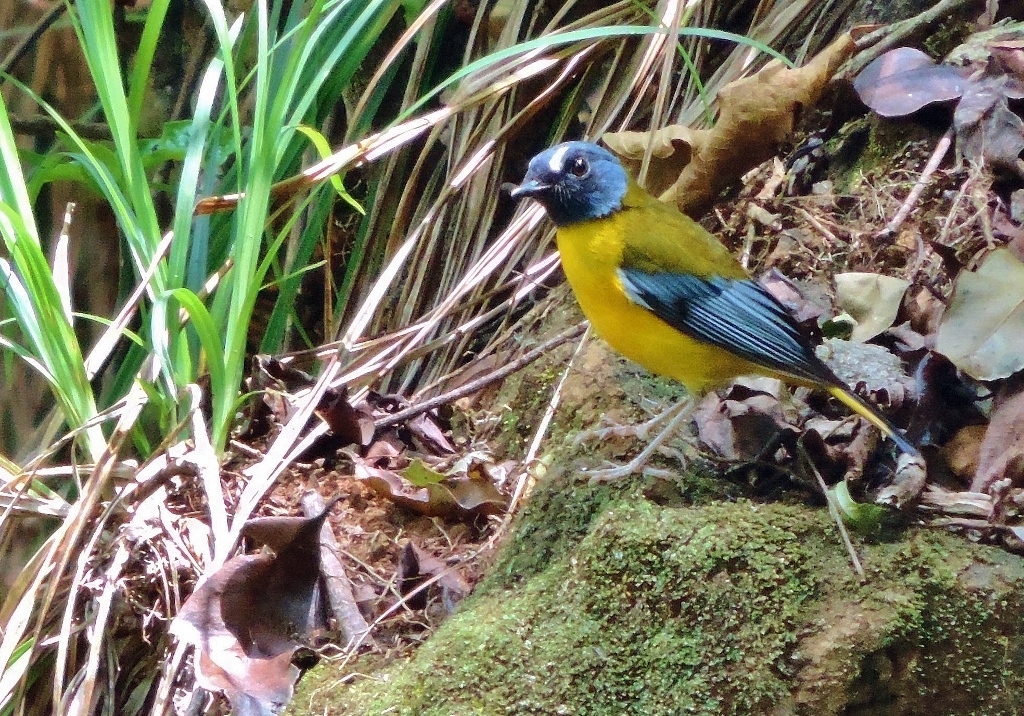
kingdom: Animalia
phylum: Chordata
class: Aves
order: Passeriformes
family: Muscicapidae
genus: Pogonocichla
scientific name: Pogonocichla stellata
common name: White-starred robin
